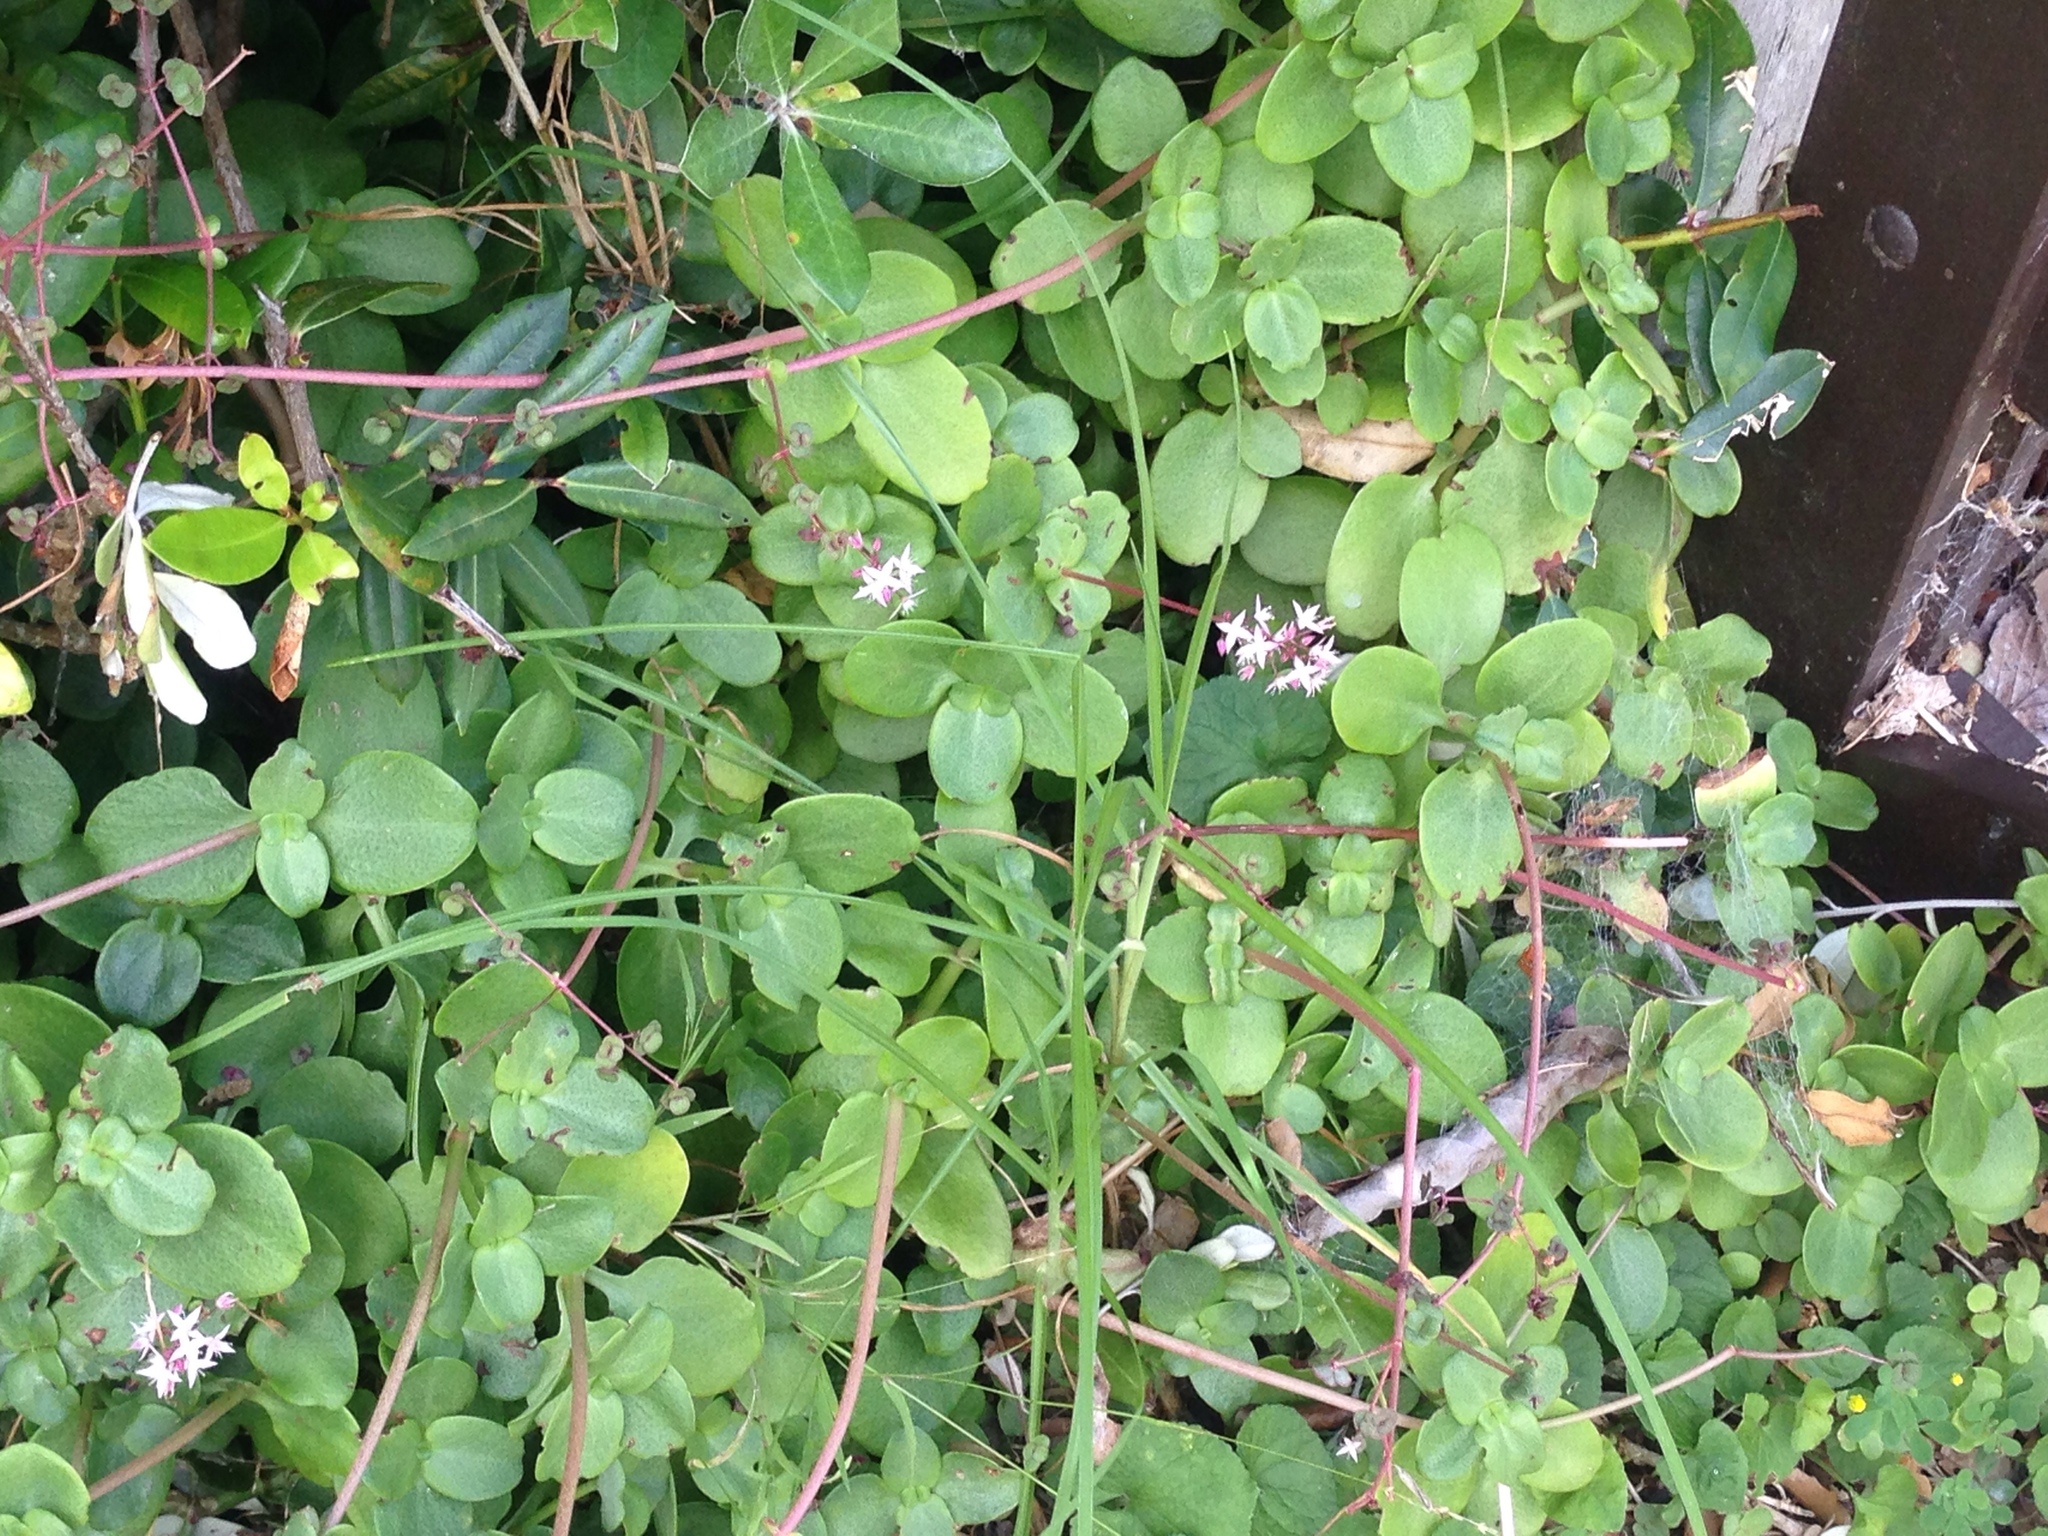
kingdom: Plantae
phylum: Tracheophyta
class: Magnoliopsida
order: Saxifragales
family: Crassulaceae
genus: Crassula
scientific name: Crassula multicava
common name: Cape province pygmyweed
